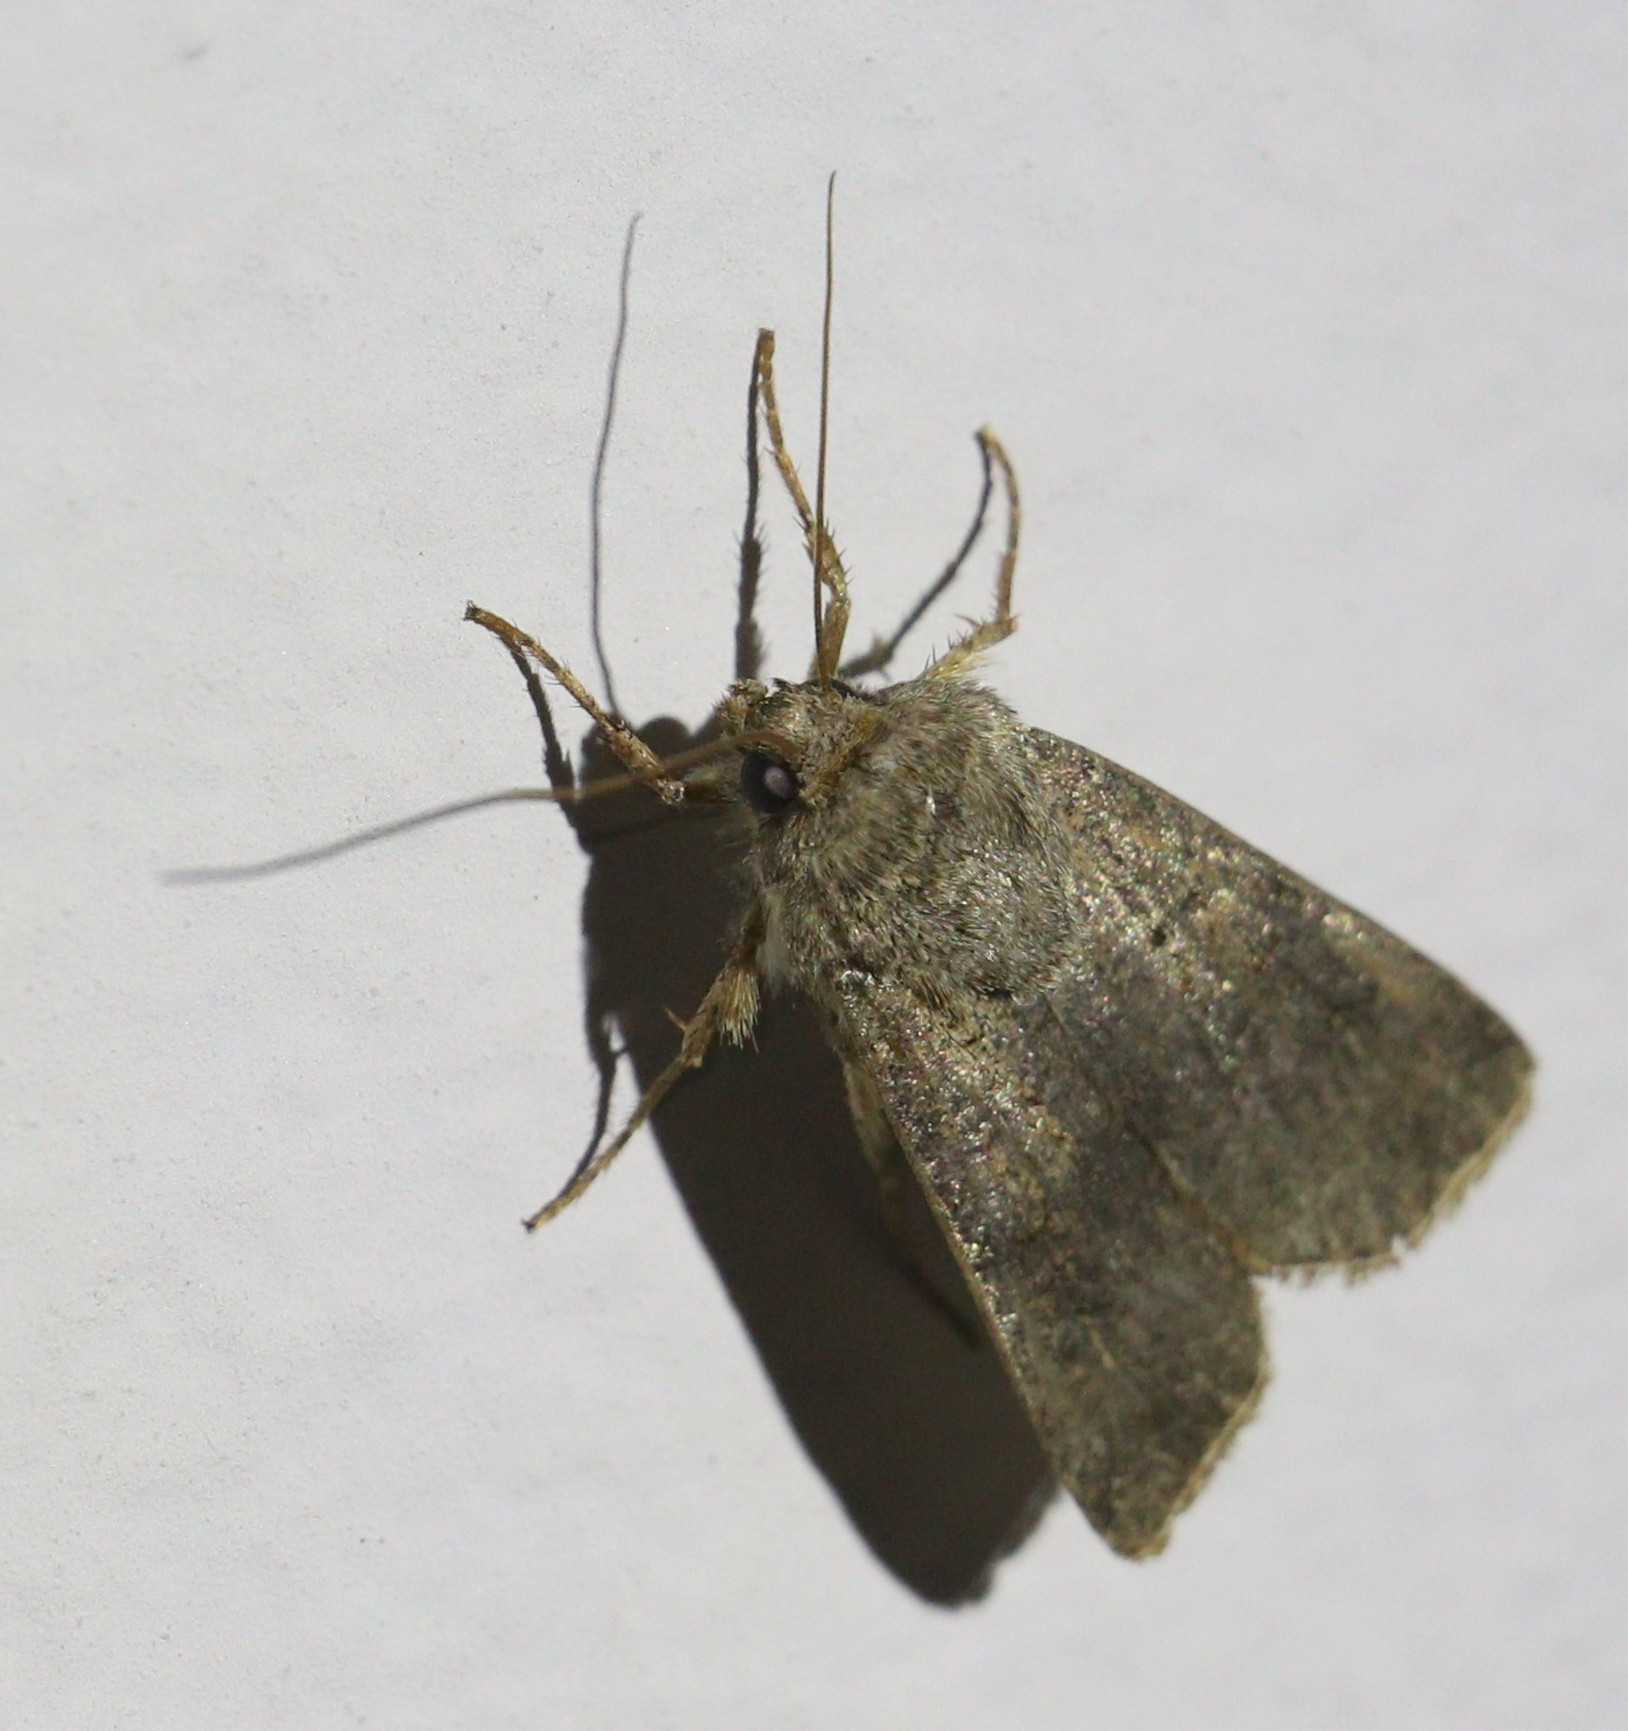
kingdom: Animalia
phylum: Arthropoda
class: Insecta
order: Lepidoptera
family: Noctuidae
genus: Agrotis
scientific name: Agrotis segetum
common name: Turnip moth
